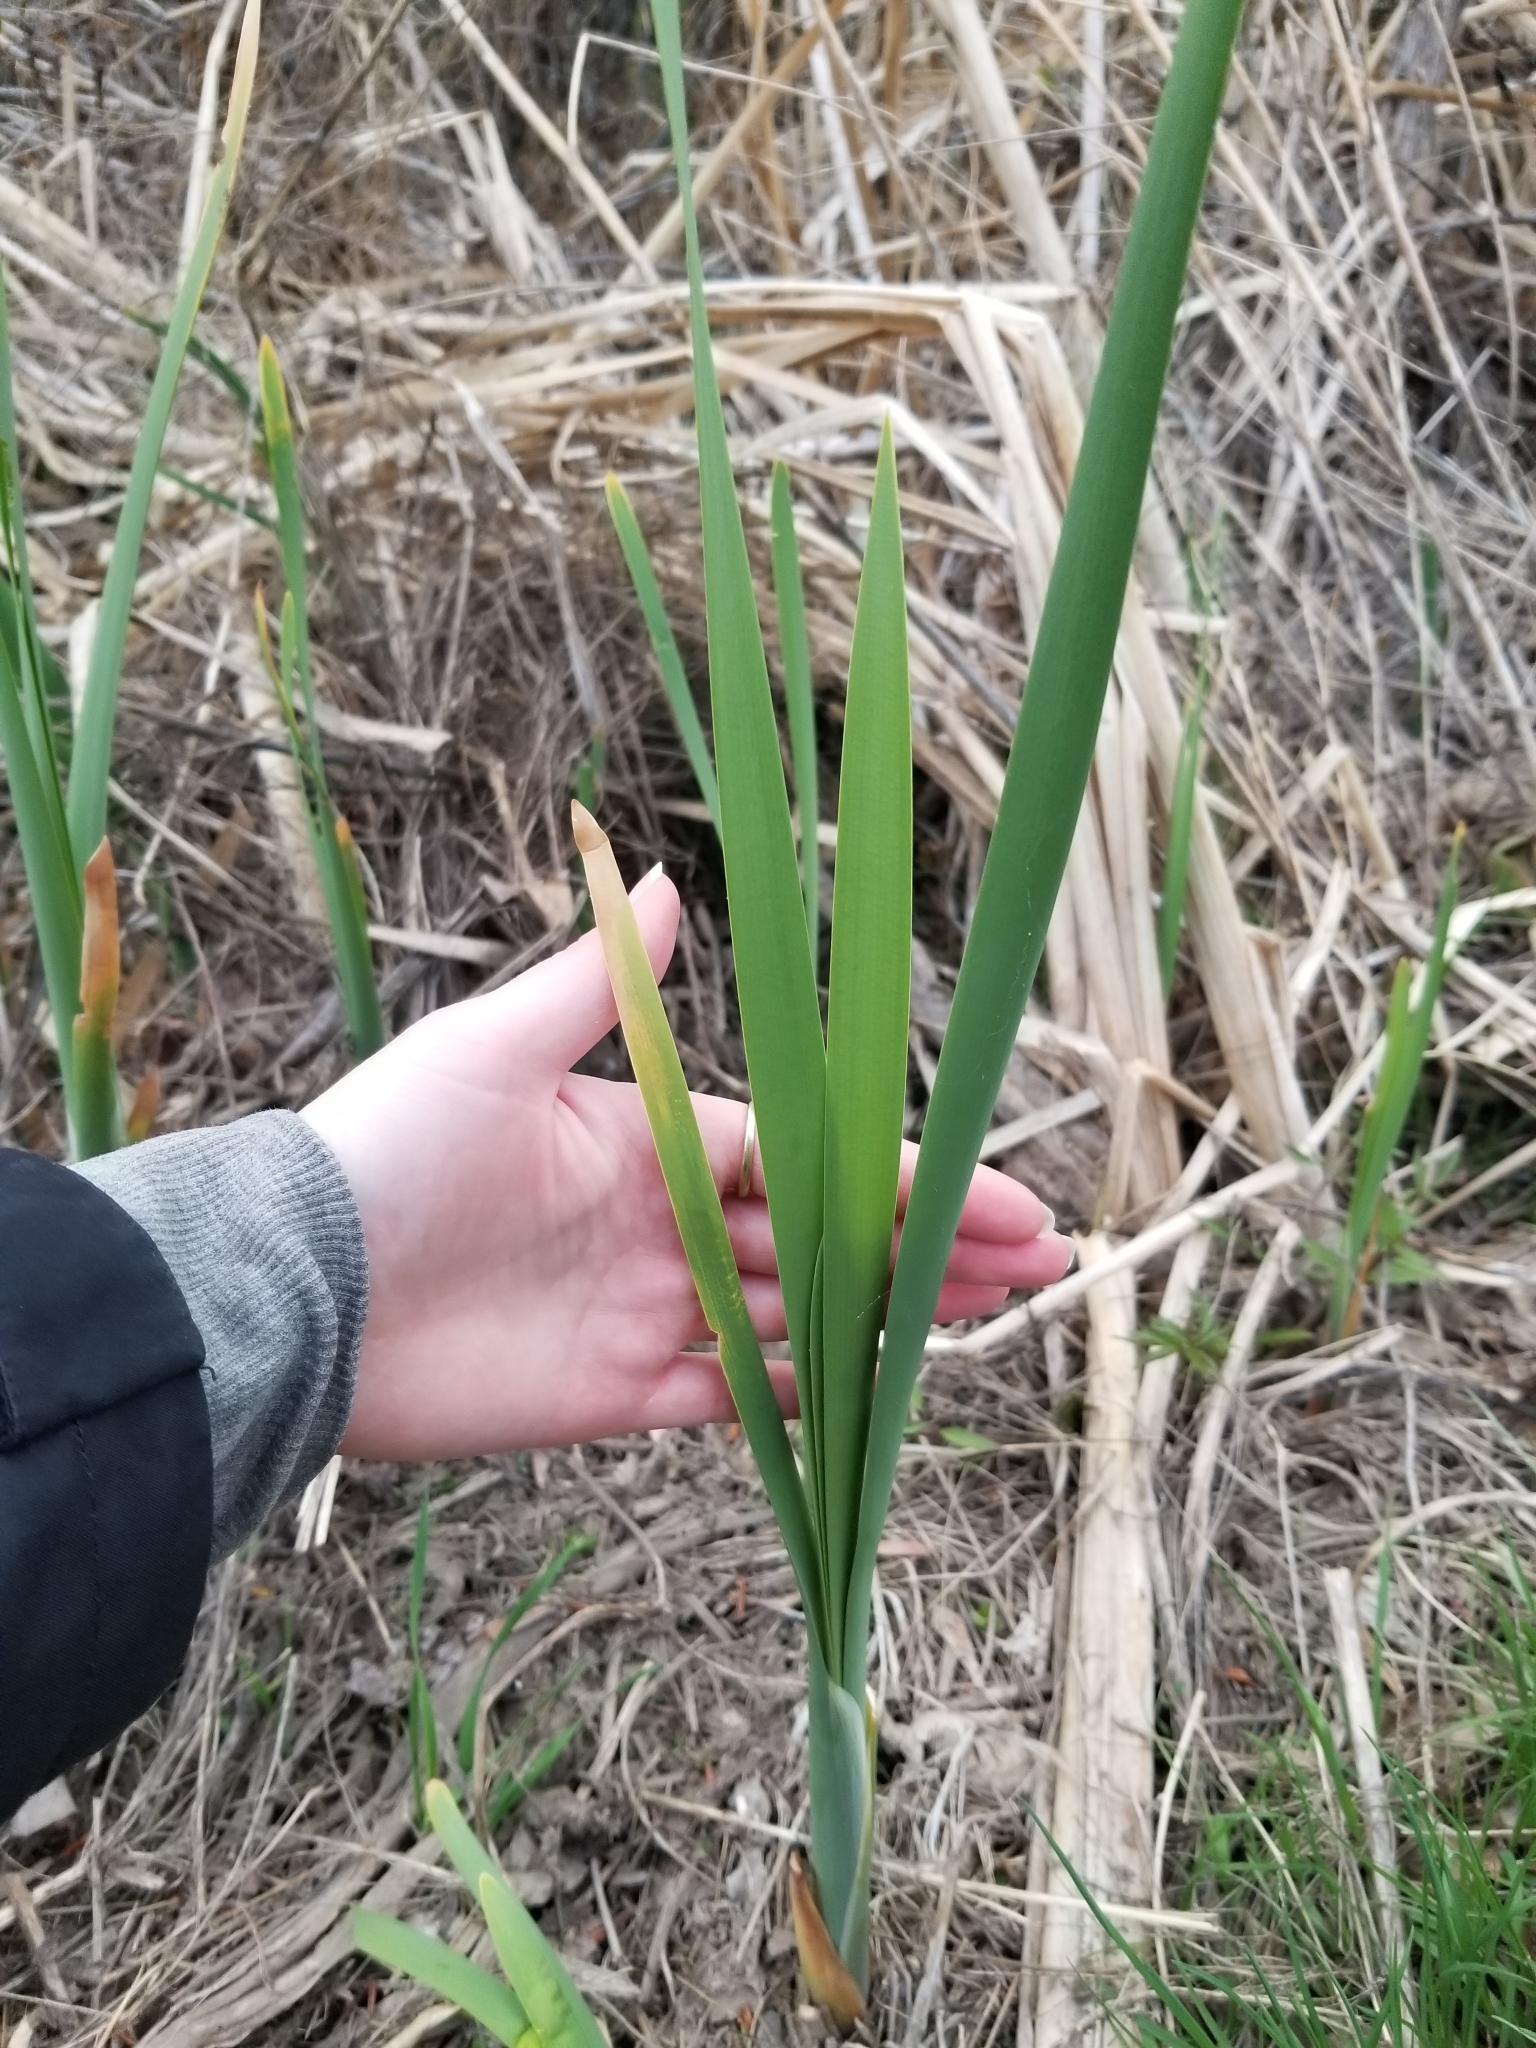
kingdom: Plantae
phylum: Tracheophyta
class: Liliopsida
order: Poales
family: Typhaceae
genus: Typha
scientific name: Typha latifolia
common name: Broadleaf cattail
